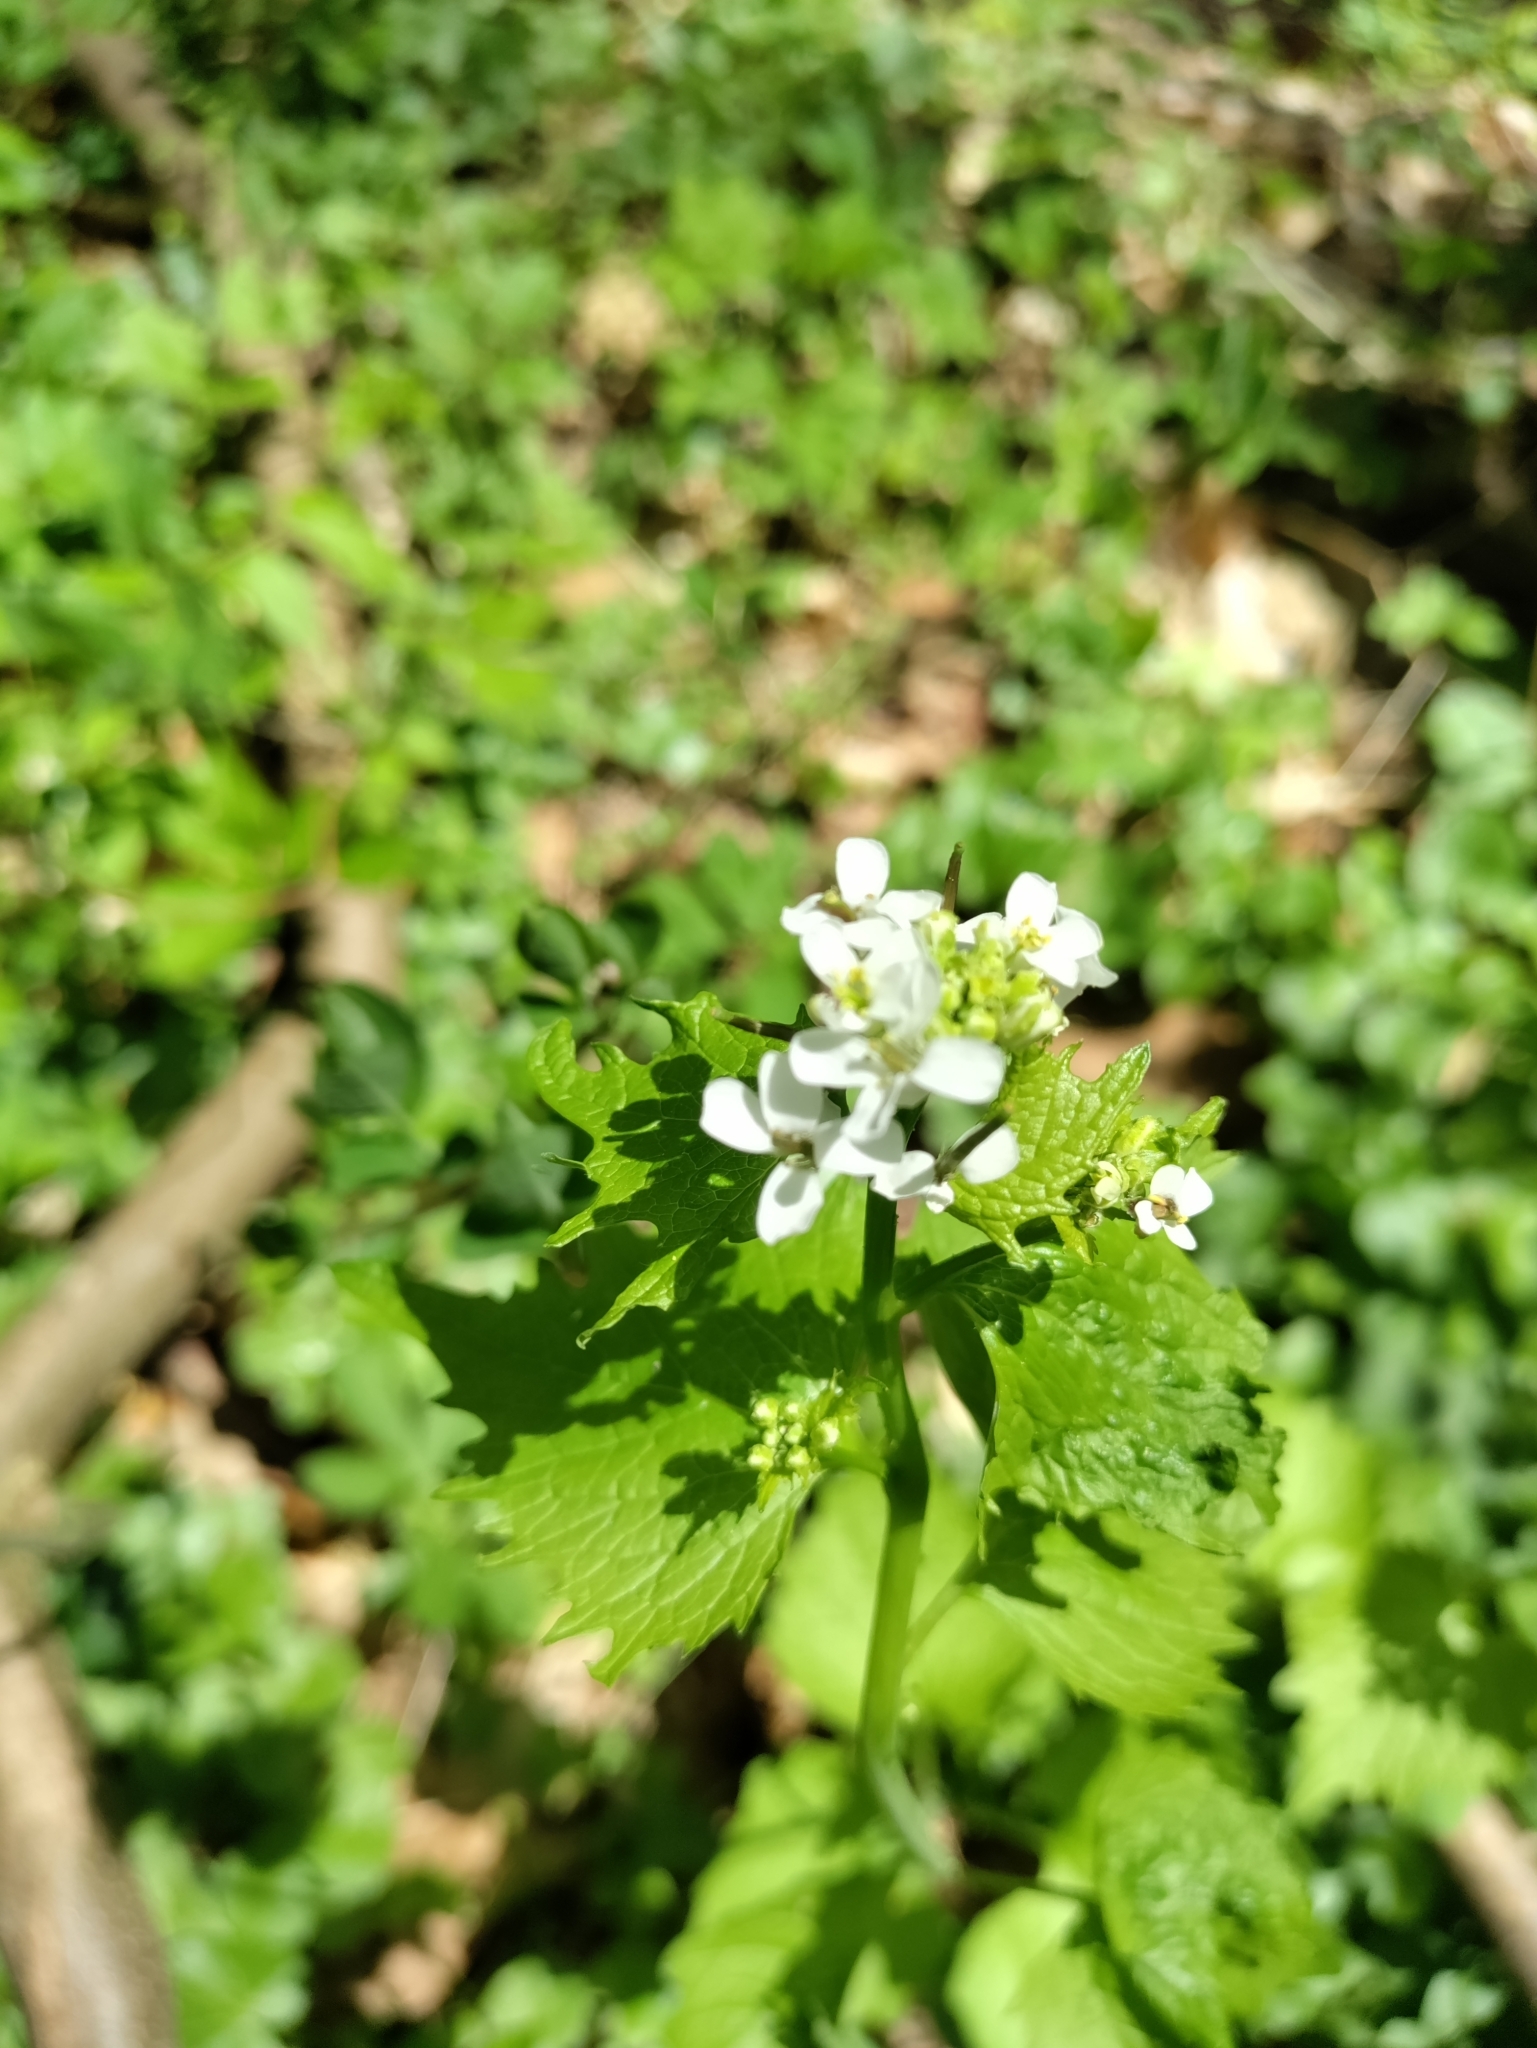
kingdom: Plantae
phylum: Tracheophyta
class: Magnoliopsida
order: Brassicales
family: Brassicaceae
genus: Alliaria
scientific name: Alliaria petiolata
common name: Garlic mustard
